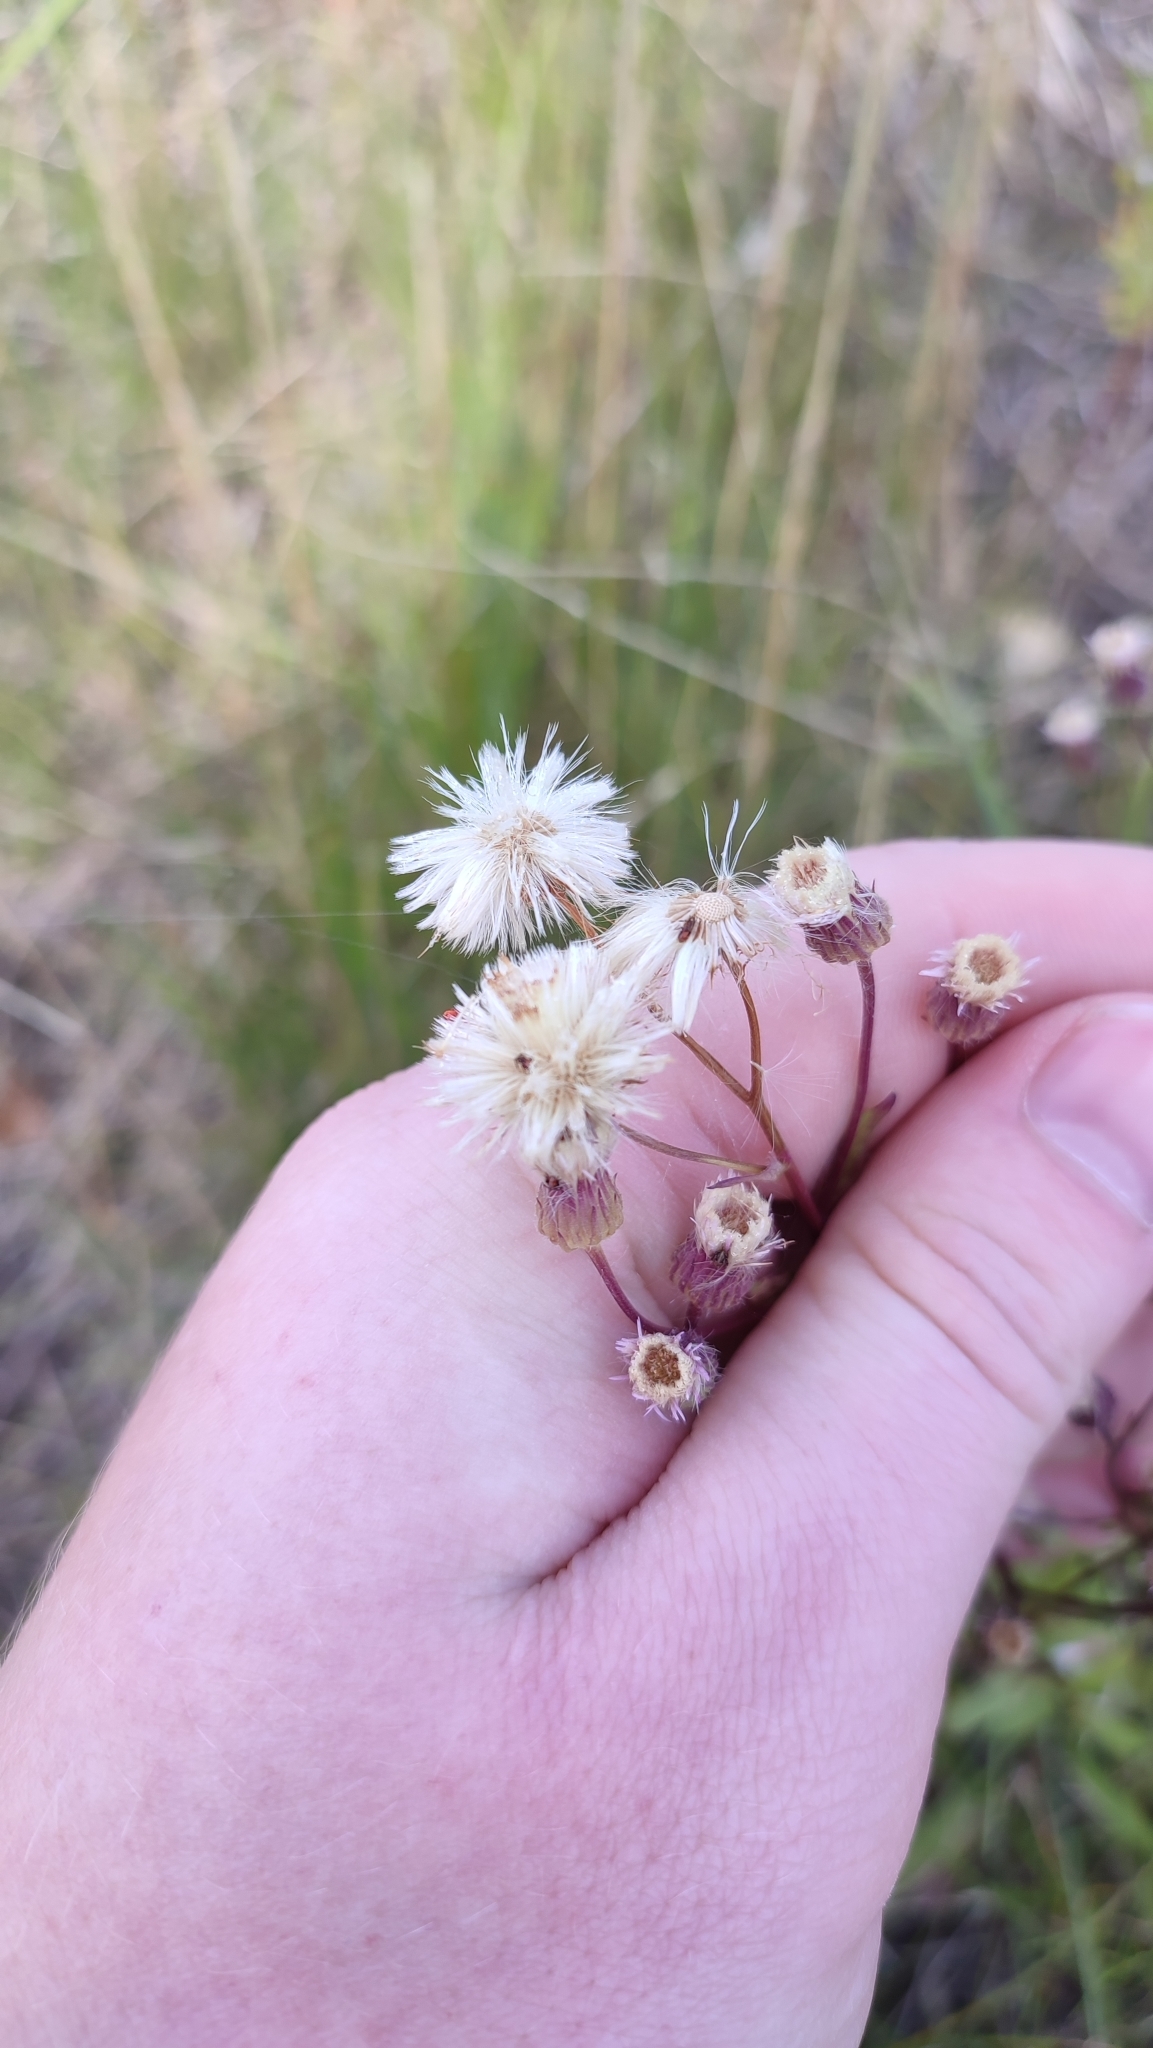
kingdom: Plantae
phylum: Tracheophyta
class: Magnoliopsida
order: Asterales
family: Asteraceae
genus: Erigeron
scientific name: Erigeron acris
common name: Blue fleabane
